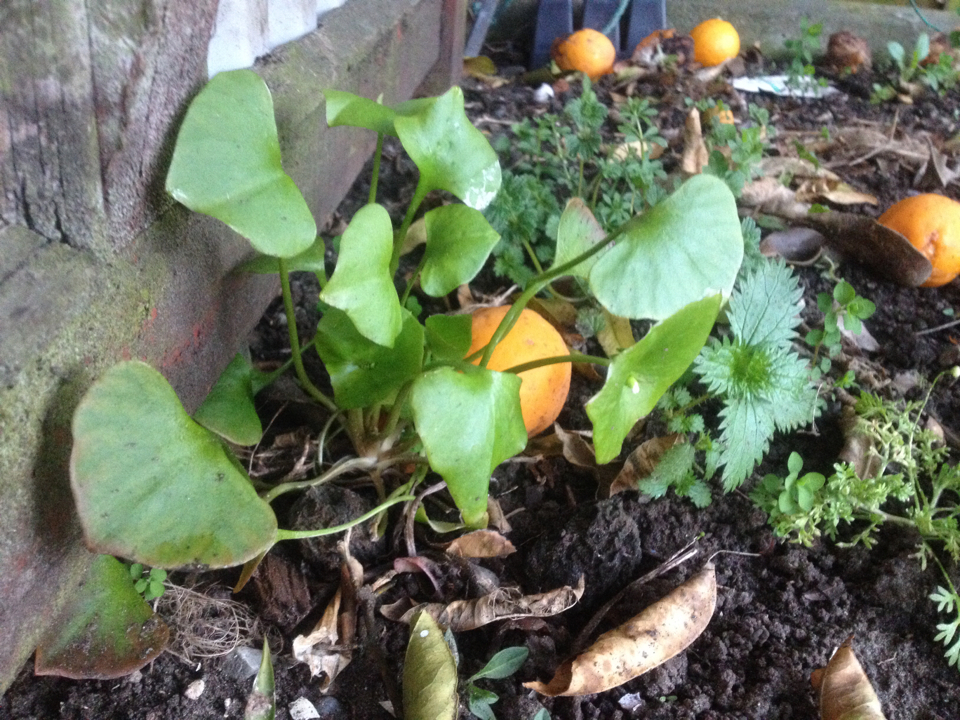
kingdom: Plantae
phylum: Tracheophyta
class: Magnoliopsida
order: Caryophyllales
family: Montiaceae
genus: Claytonia
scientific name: Claytonia perfoliata
